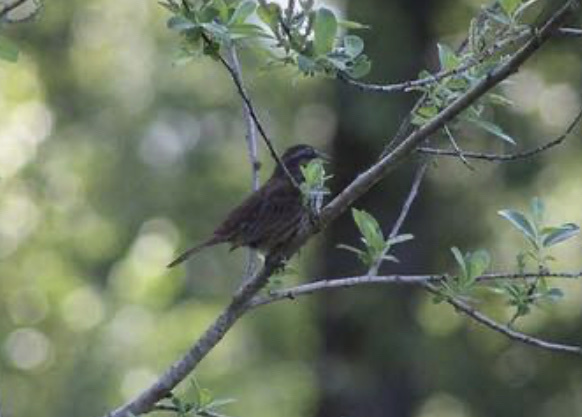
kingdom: Animalia
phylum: Chordata
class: Aves
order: Passeriformes
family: Passerellidae
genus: Melospiza
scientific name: Melospiza melodia
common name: Song sparrow
